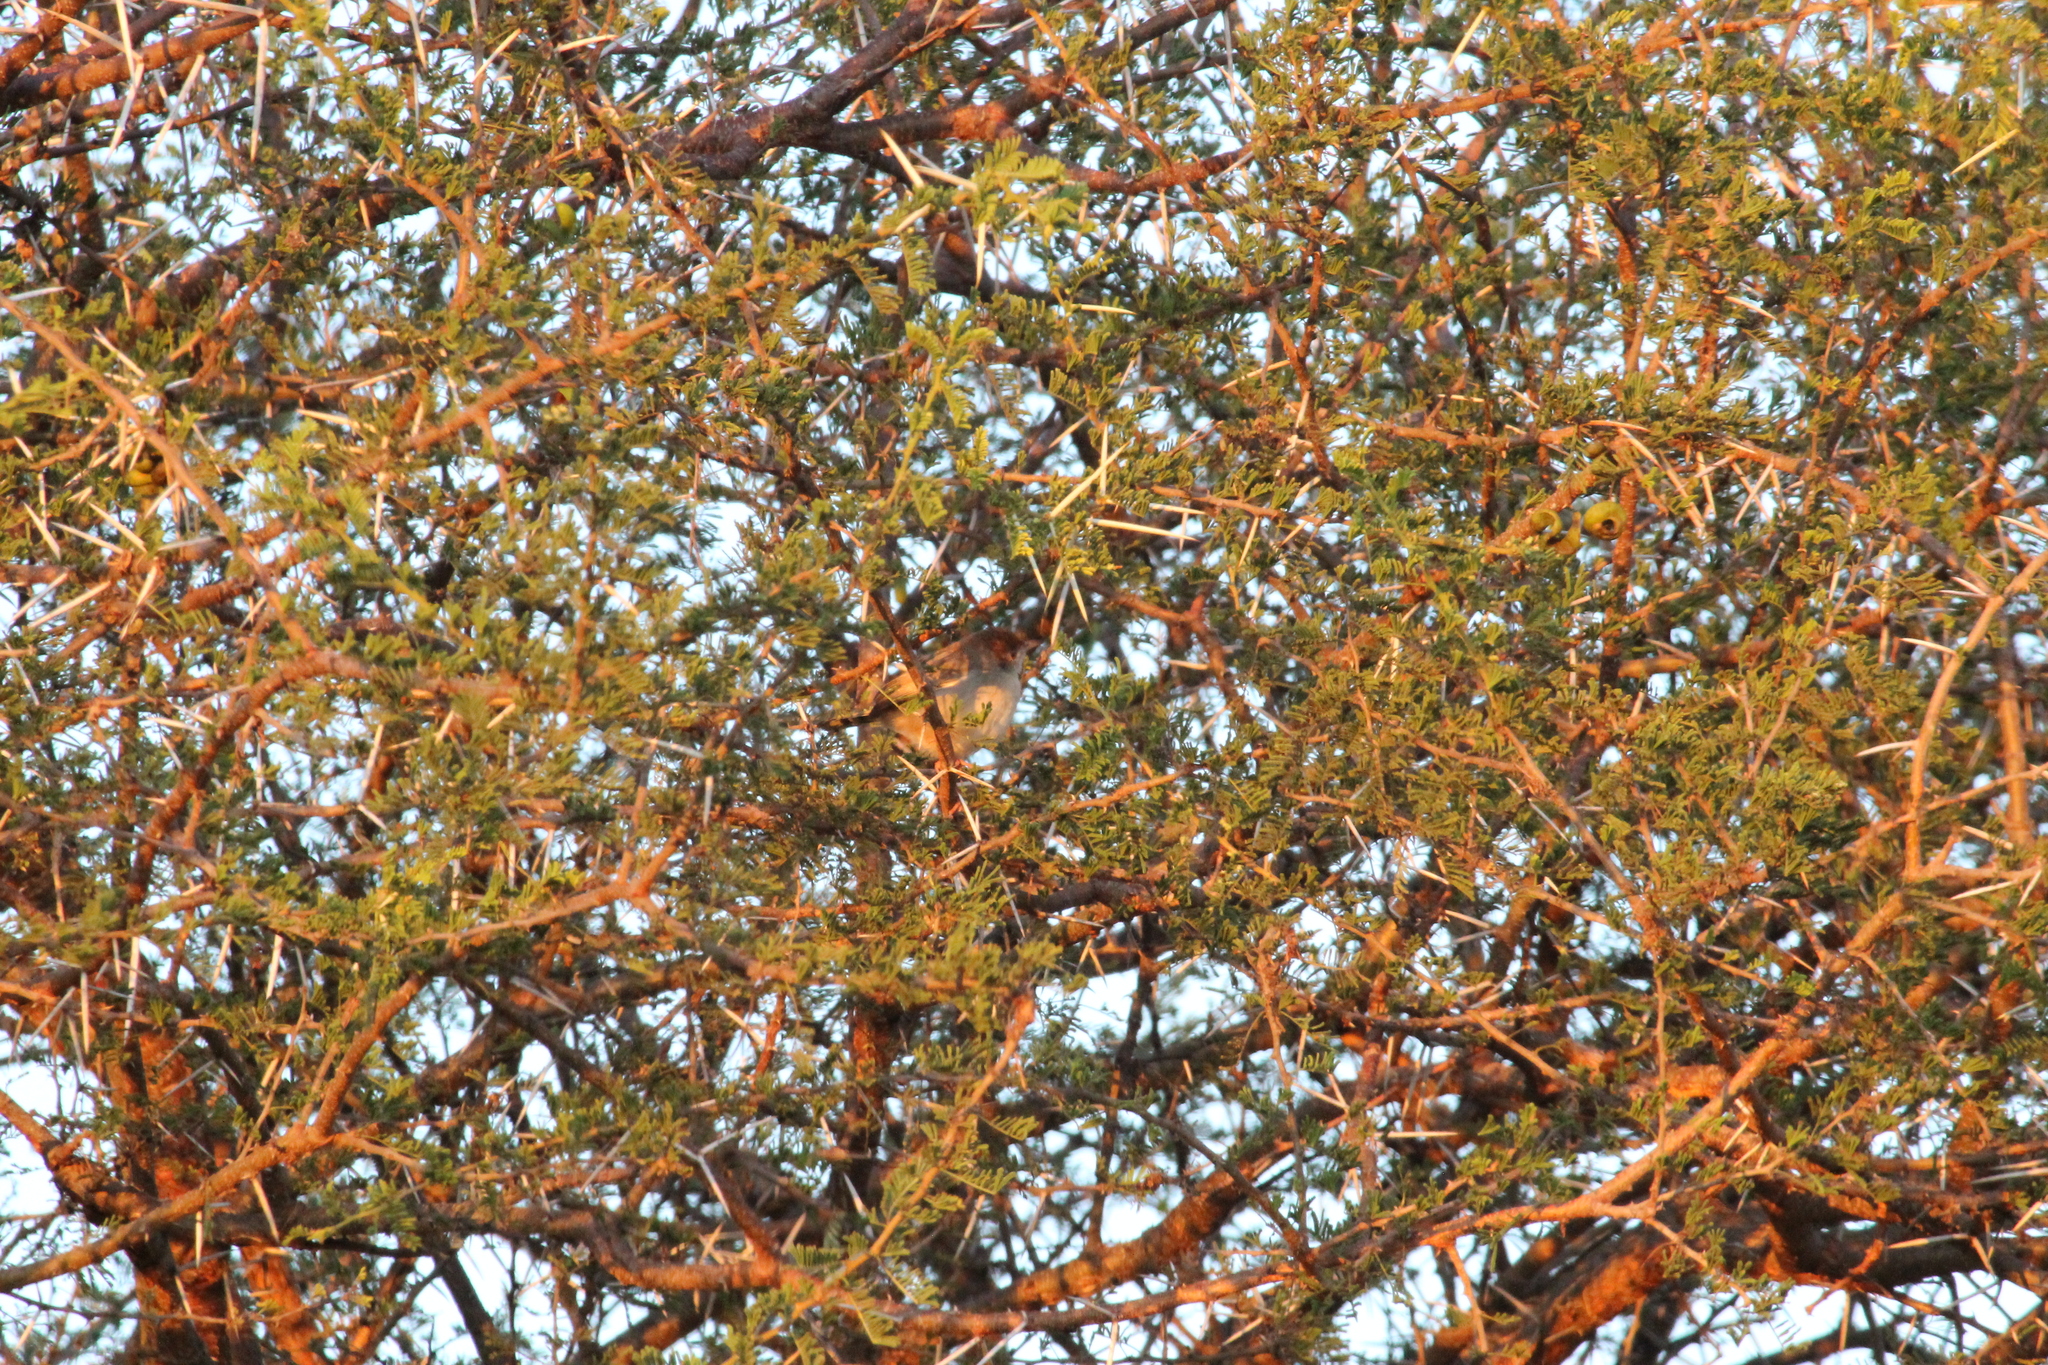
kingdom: Animalia
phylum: Chordata
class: Aves
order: Passeriformes
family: Cisticolidae
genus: Cisticola
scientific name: Cisticola fulvicapilla
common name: Neddicky
